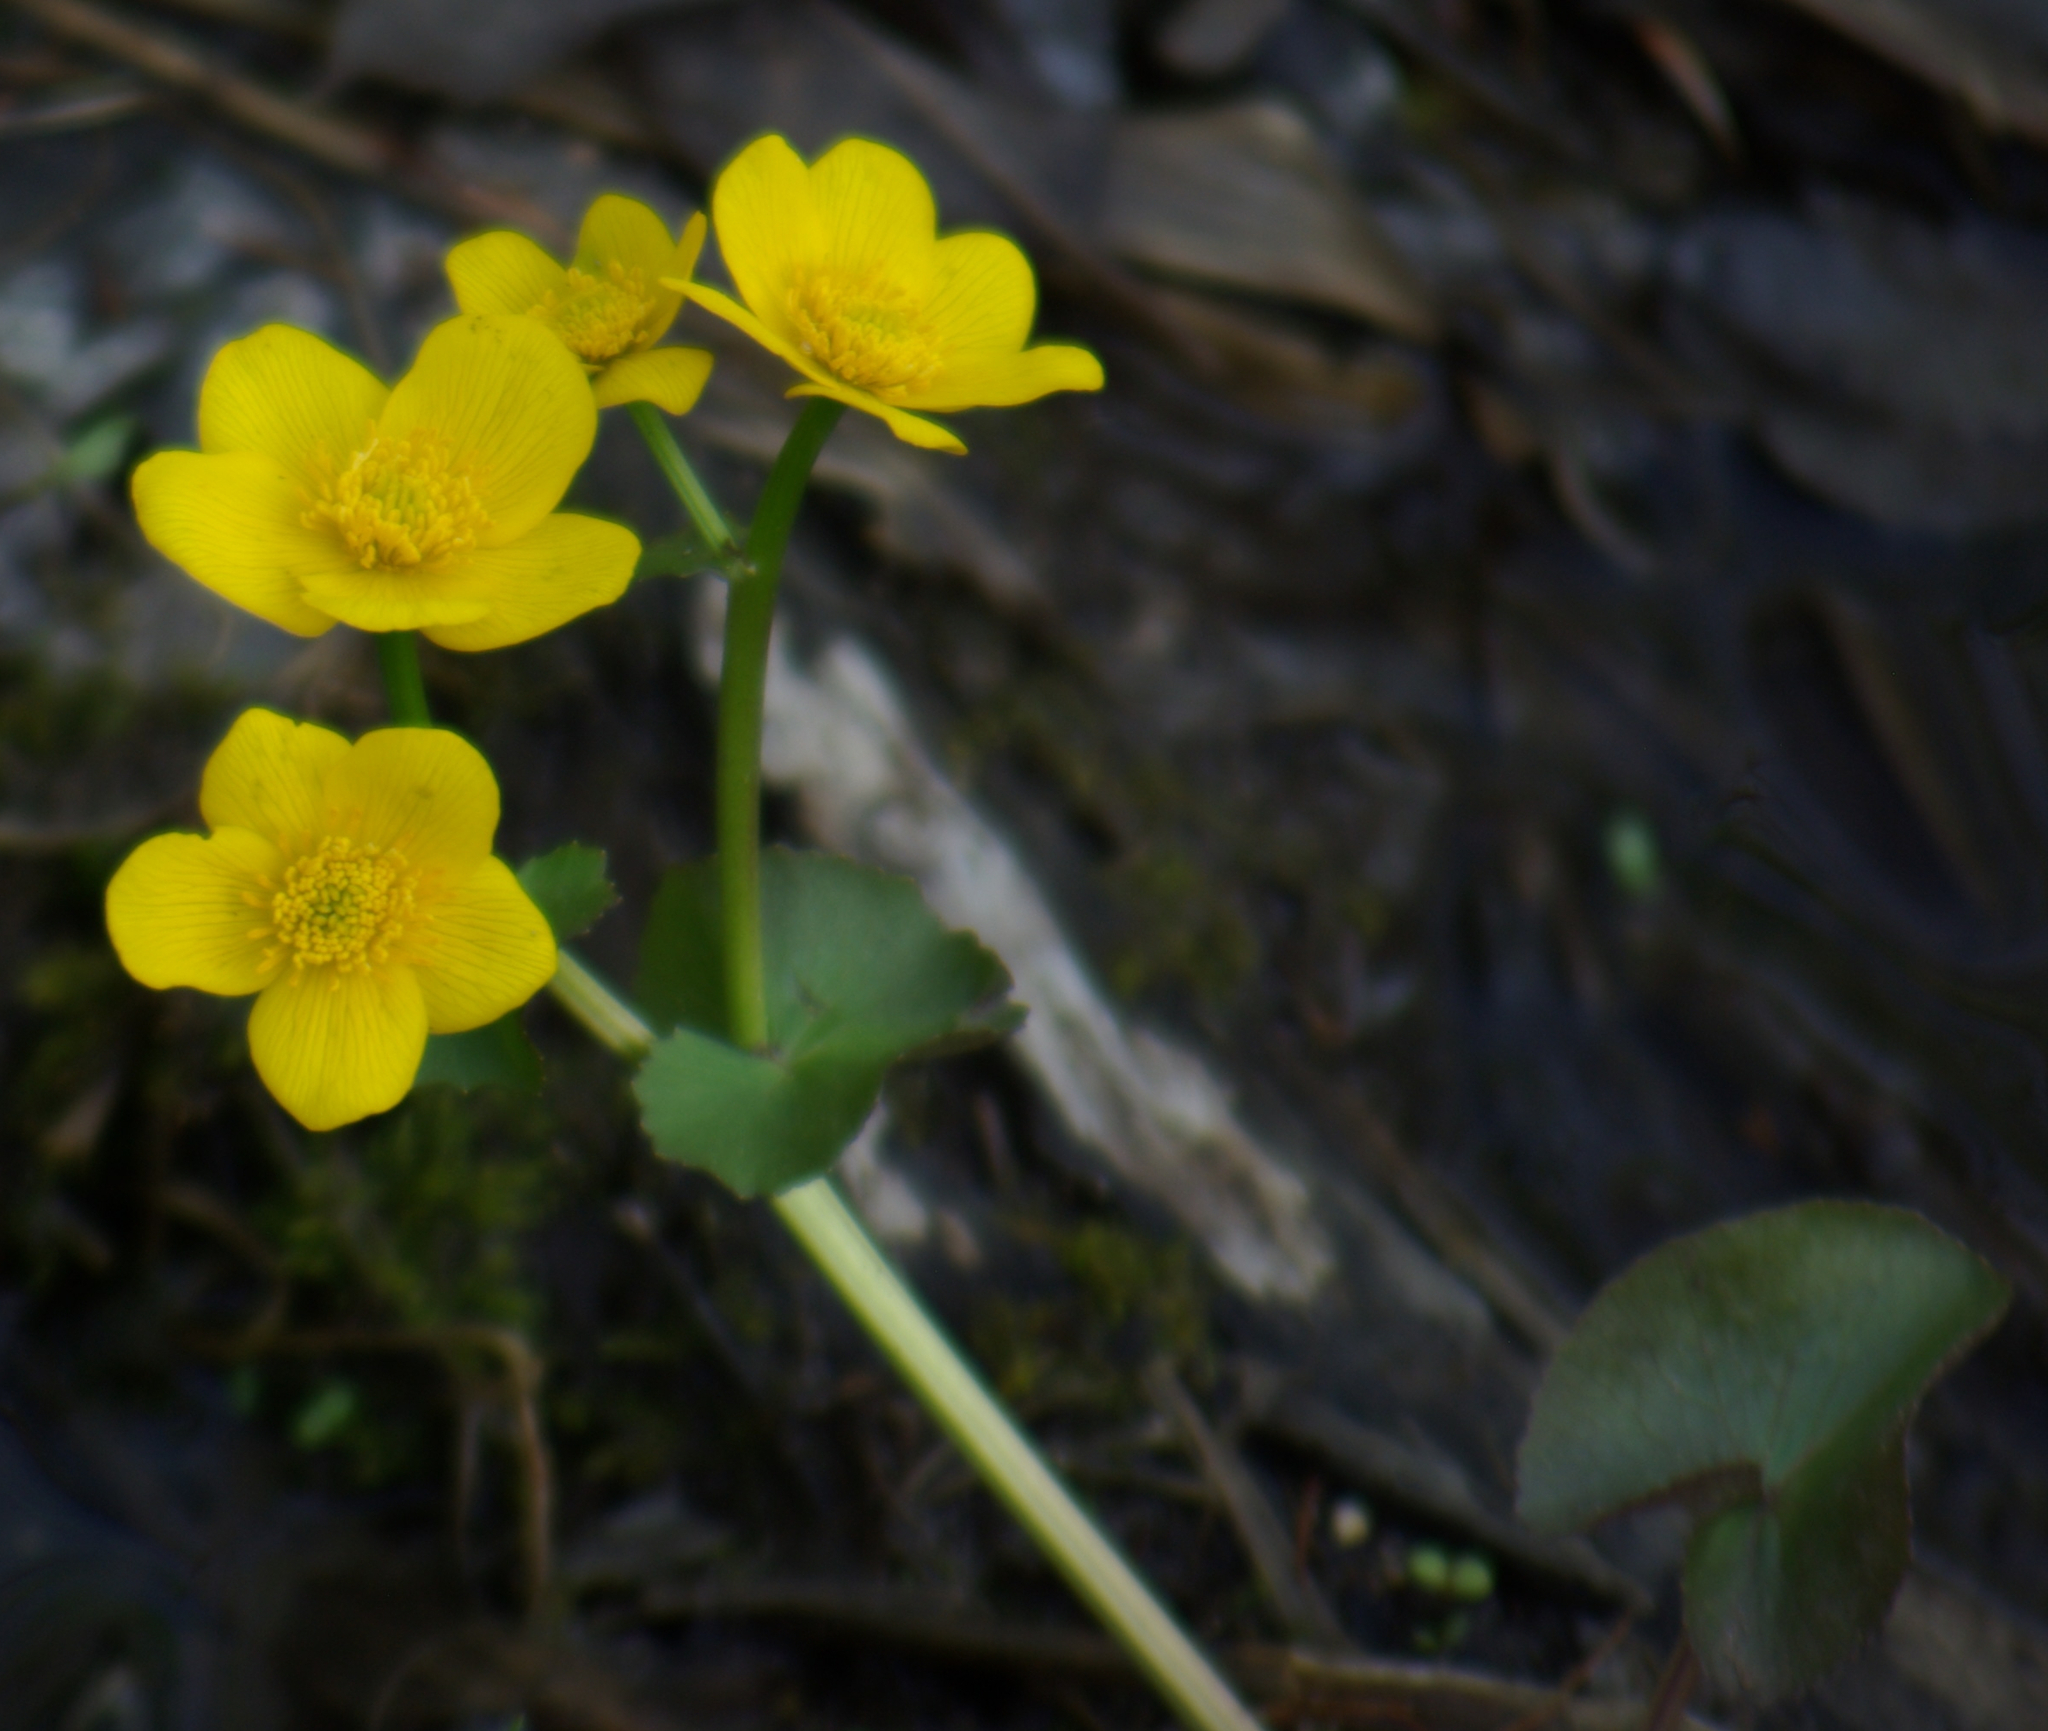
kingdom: Plantae
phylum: Tracheophyta
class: Magnoliopsida
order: Ranunculales
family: Ranunculaceae
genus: Caltha
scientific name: Caltha palustris
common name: Marsh marigold
